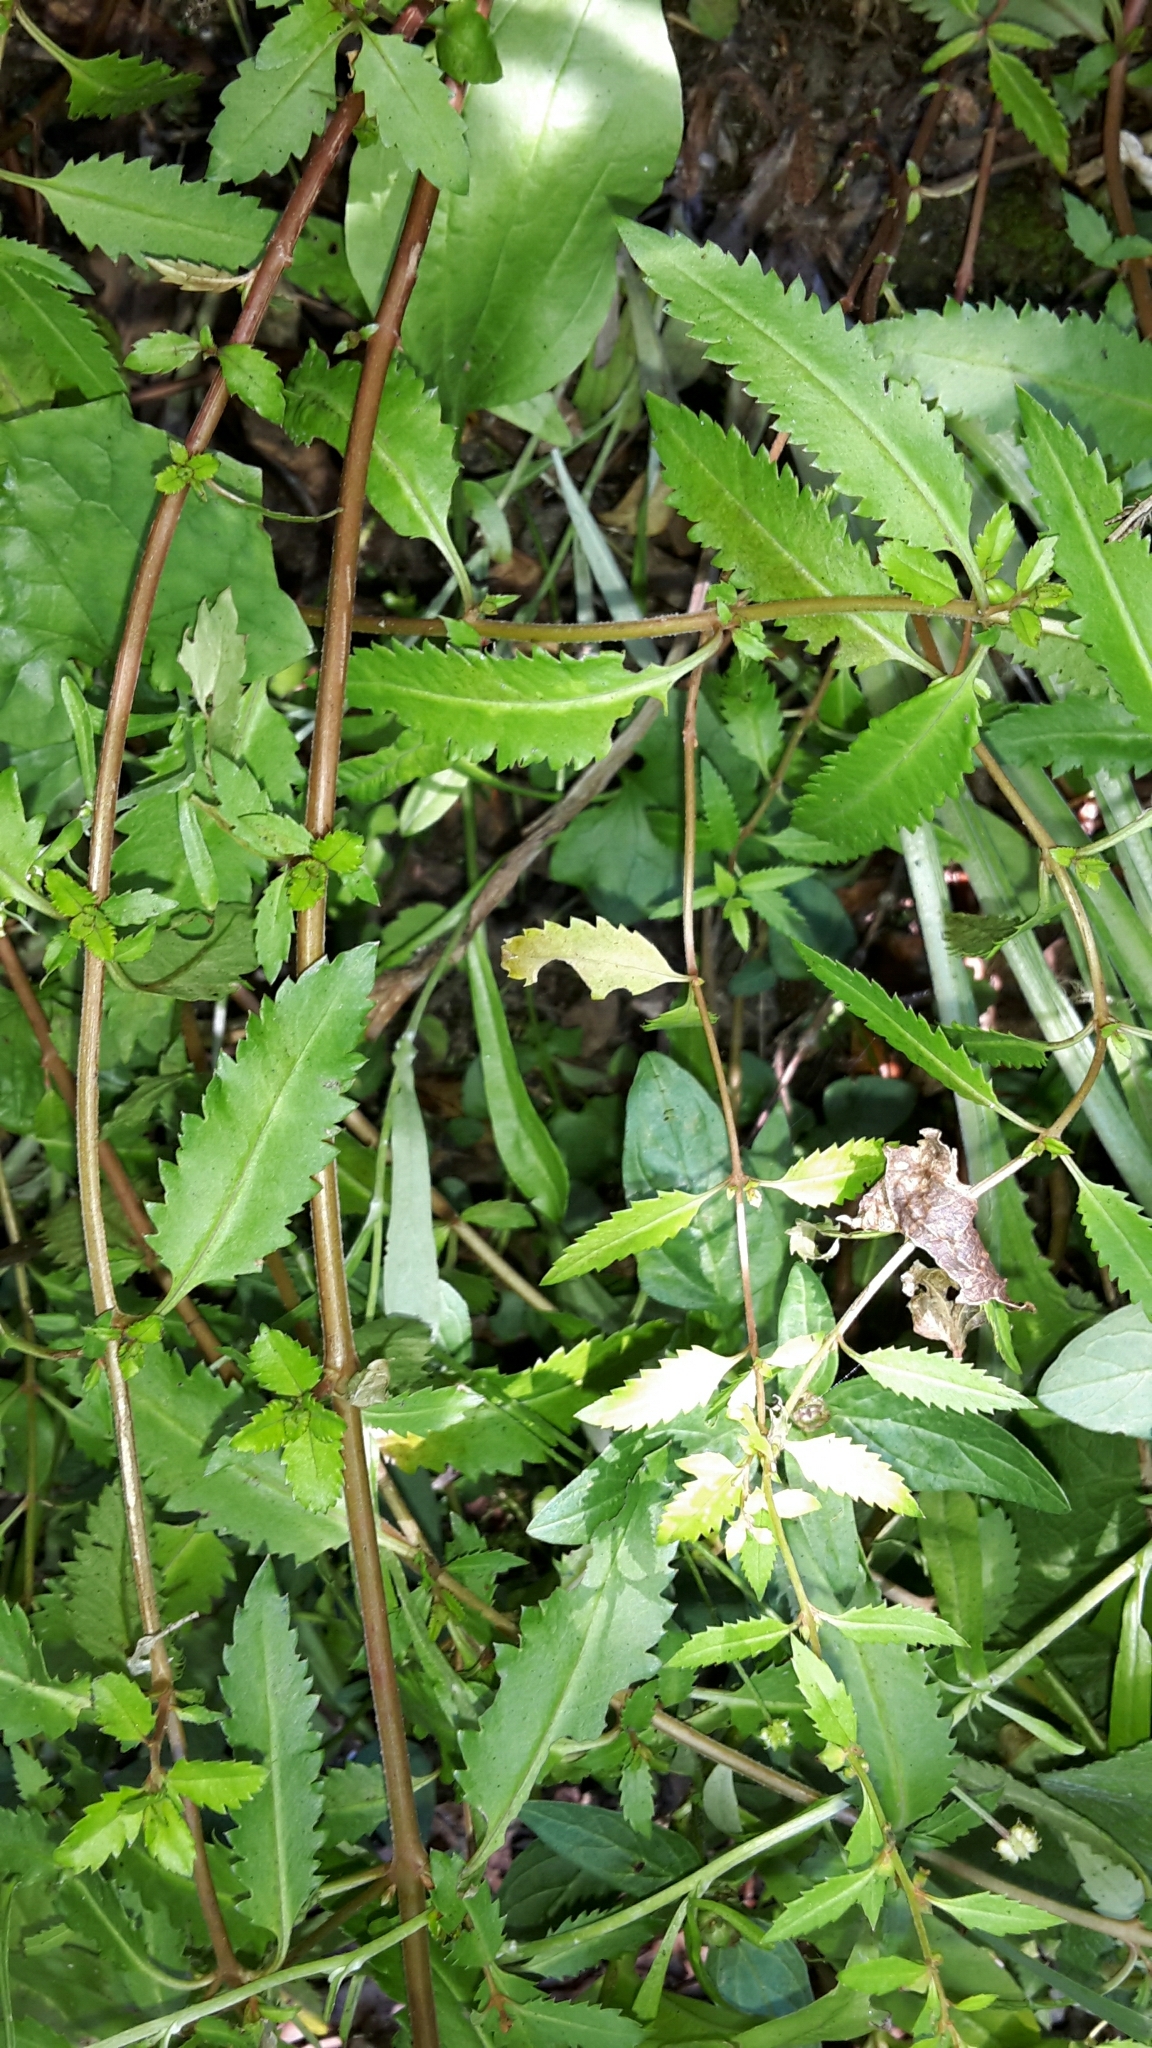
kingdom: Plantae
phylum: Tracheophyta
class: Magnoliopsida
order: Saxifragales
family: Haloragaceae
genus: Haloragis
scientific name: Haloragis erecta
